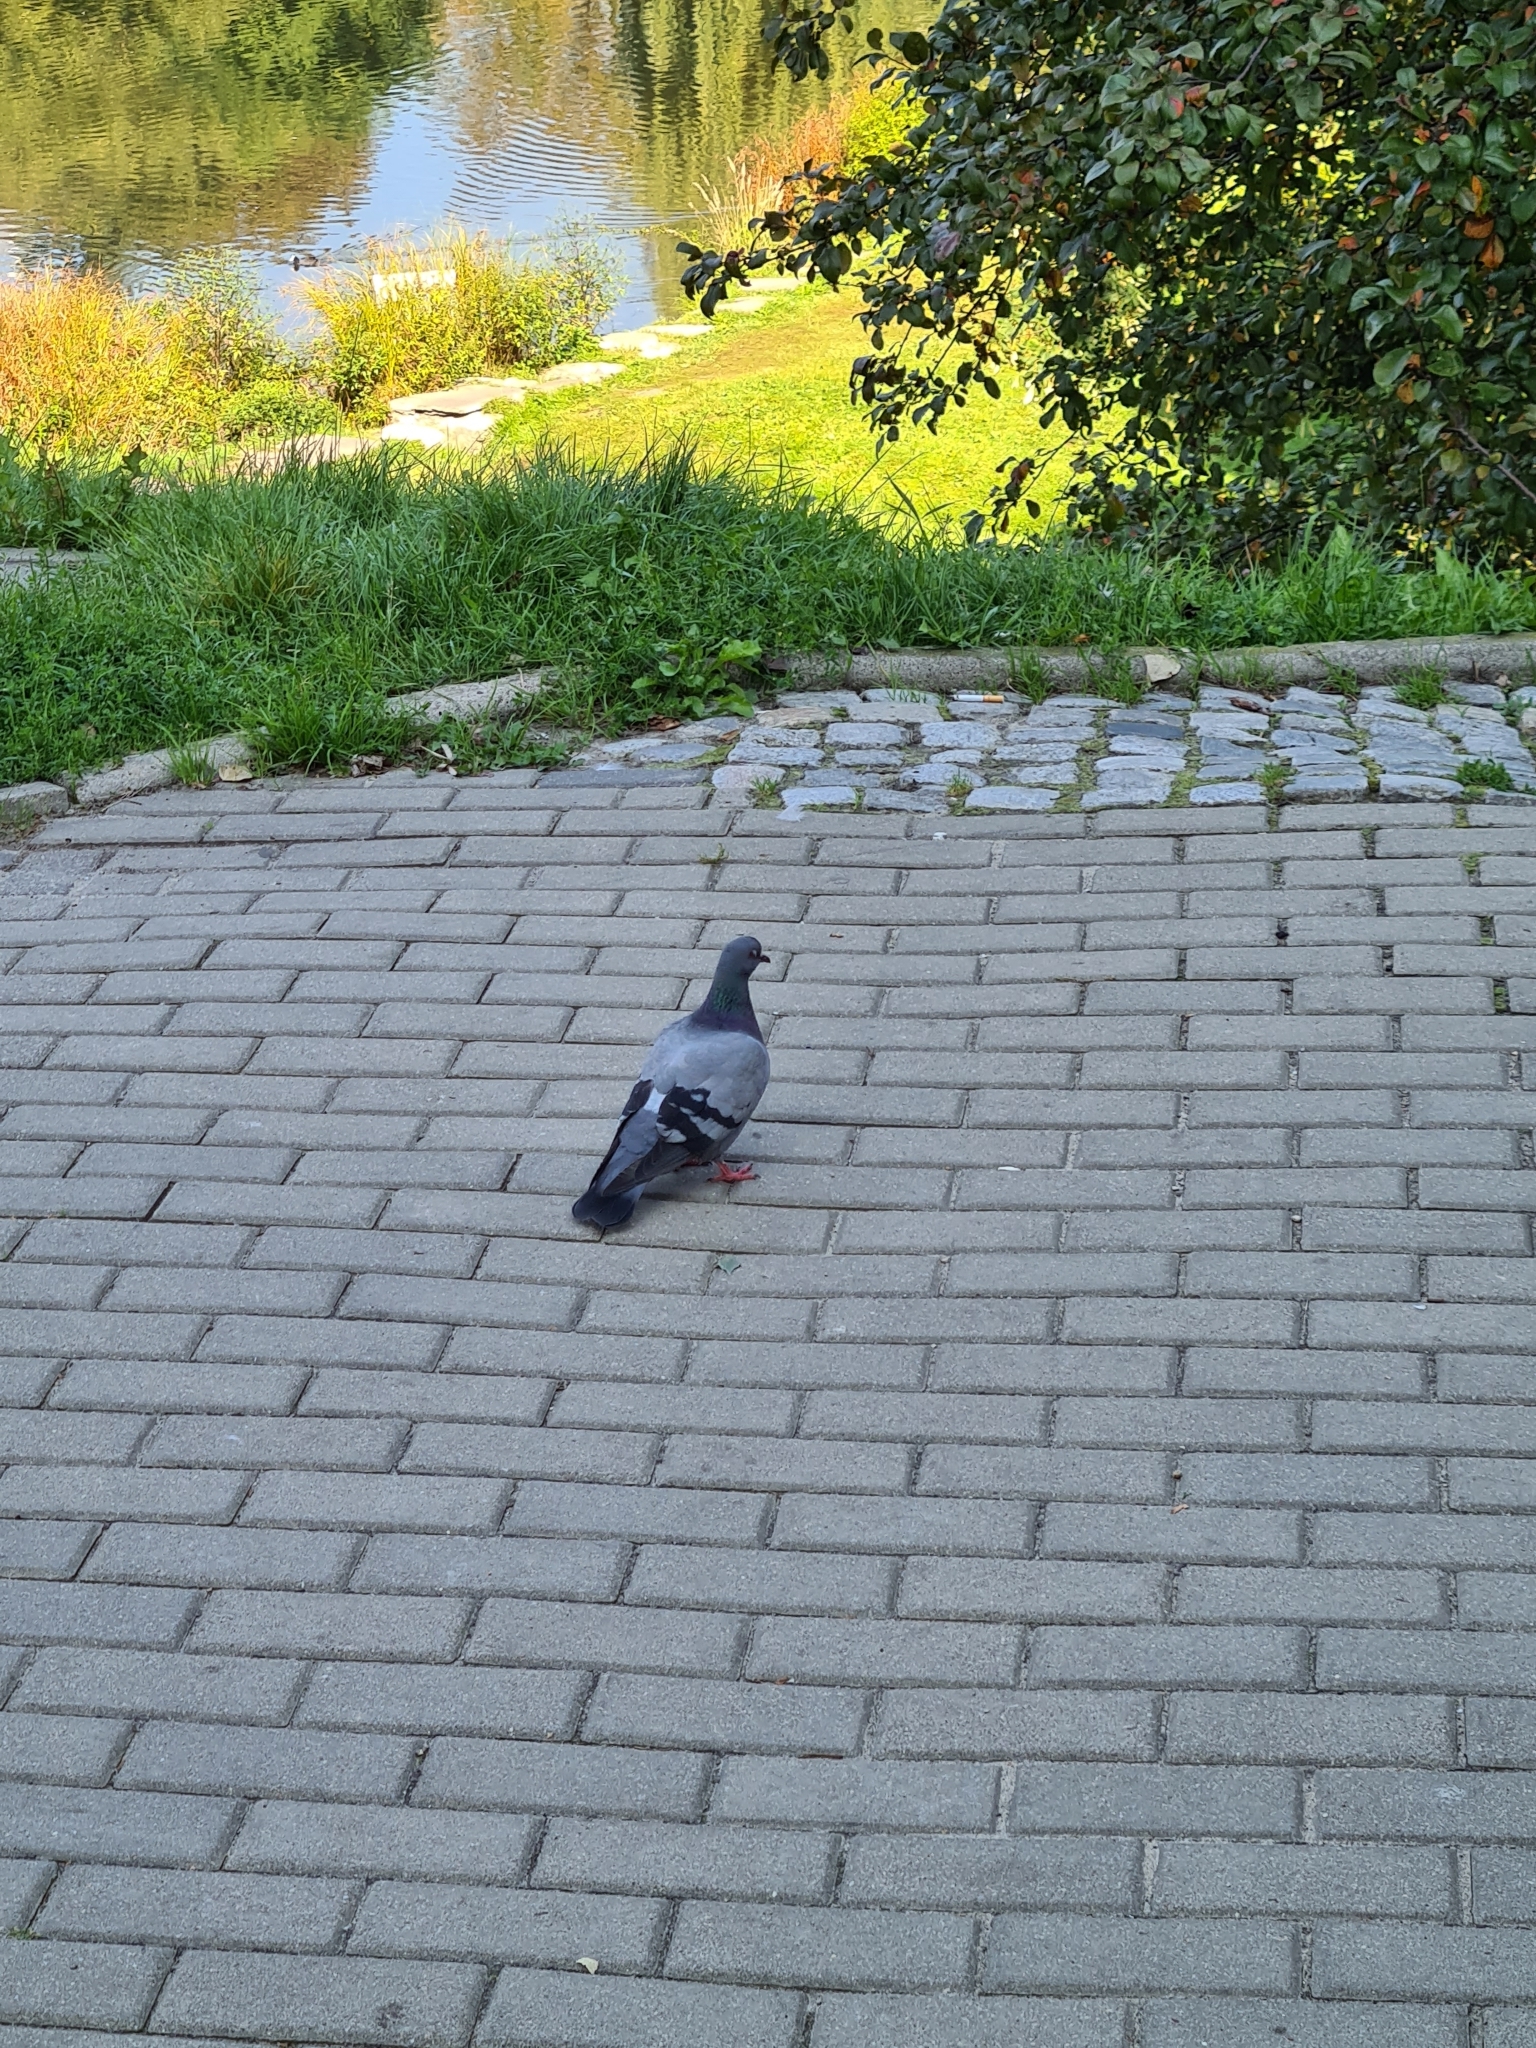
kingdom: Animalia
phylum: Chordata
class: Aves
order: Columbiformes
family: Columbidae
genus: Columba
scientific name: Columba livia
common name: Rock pigeon
